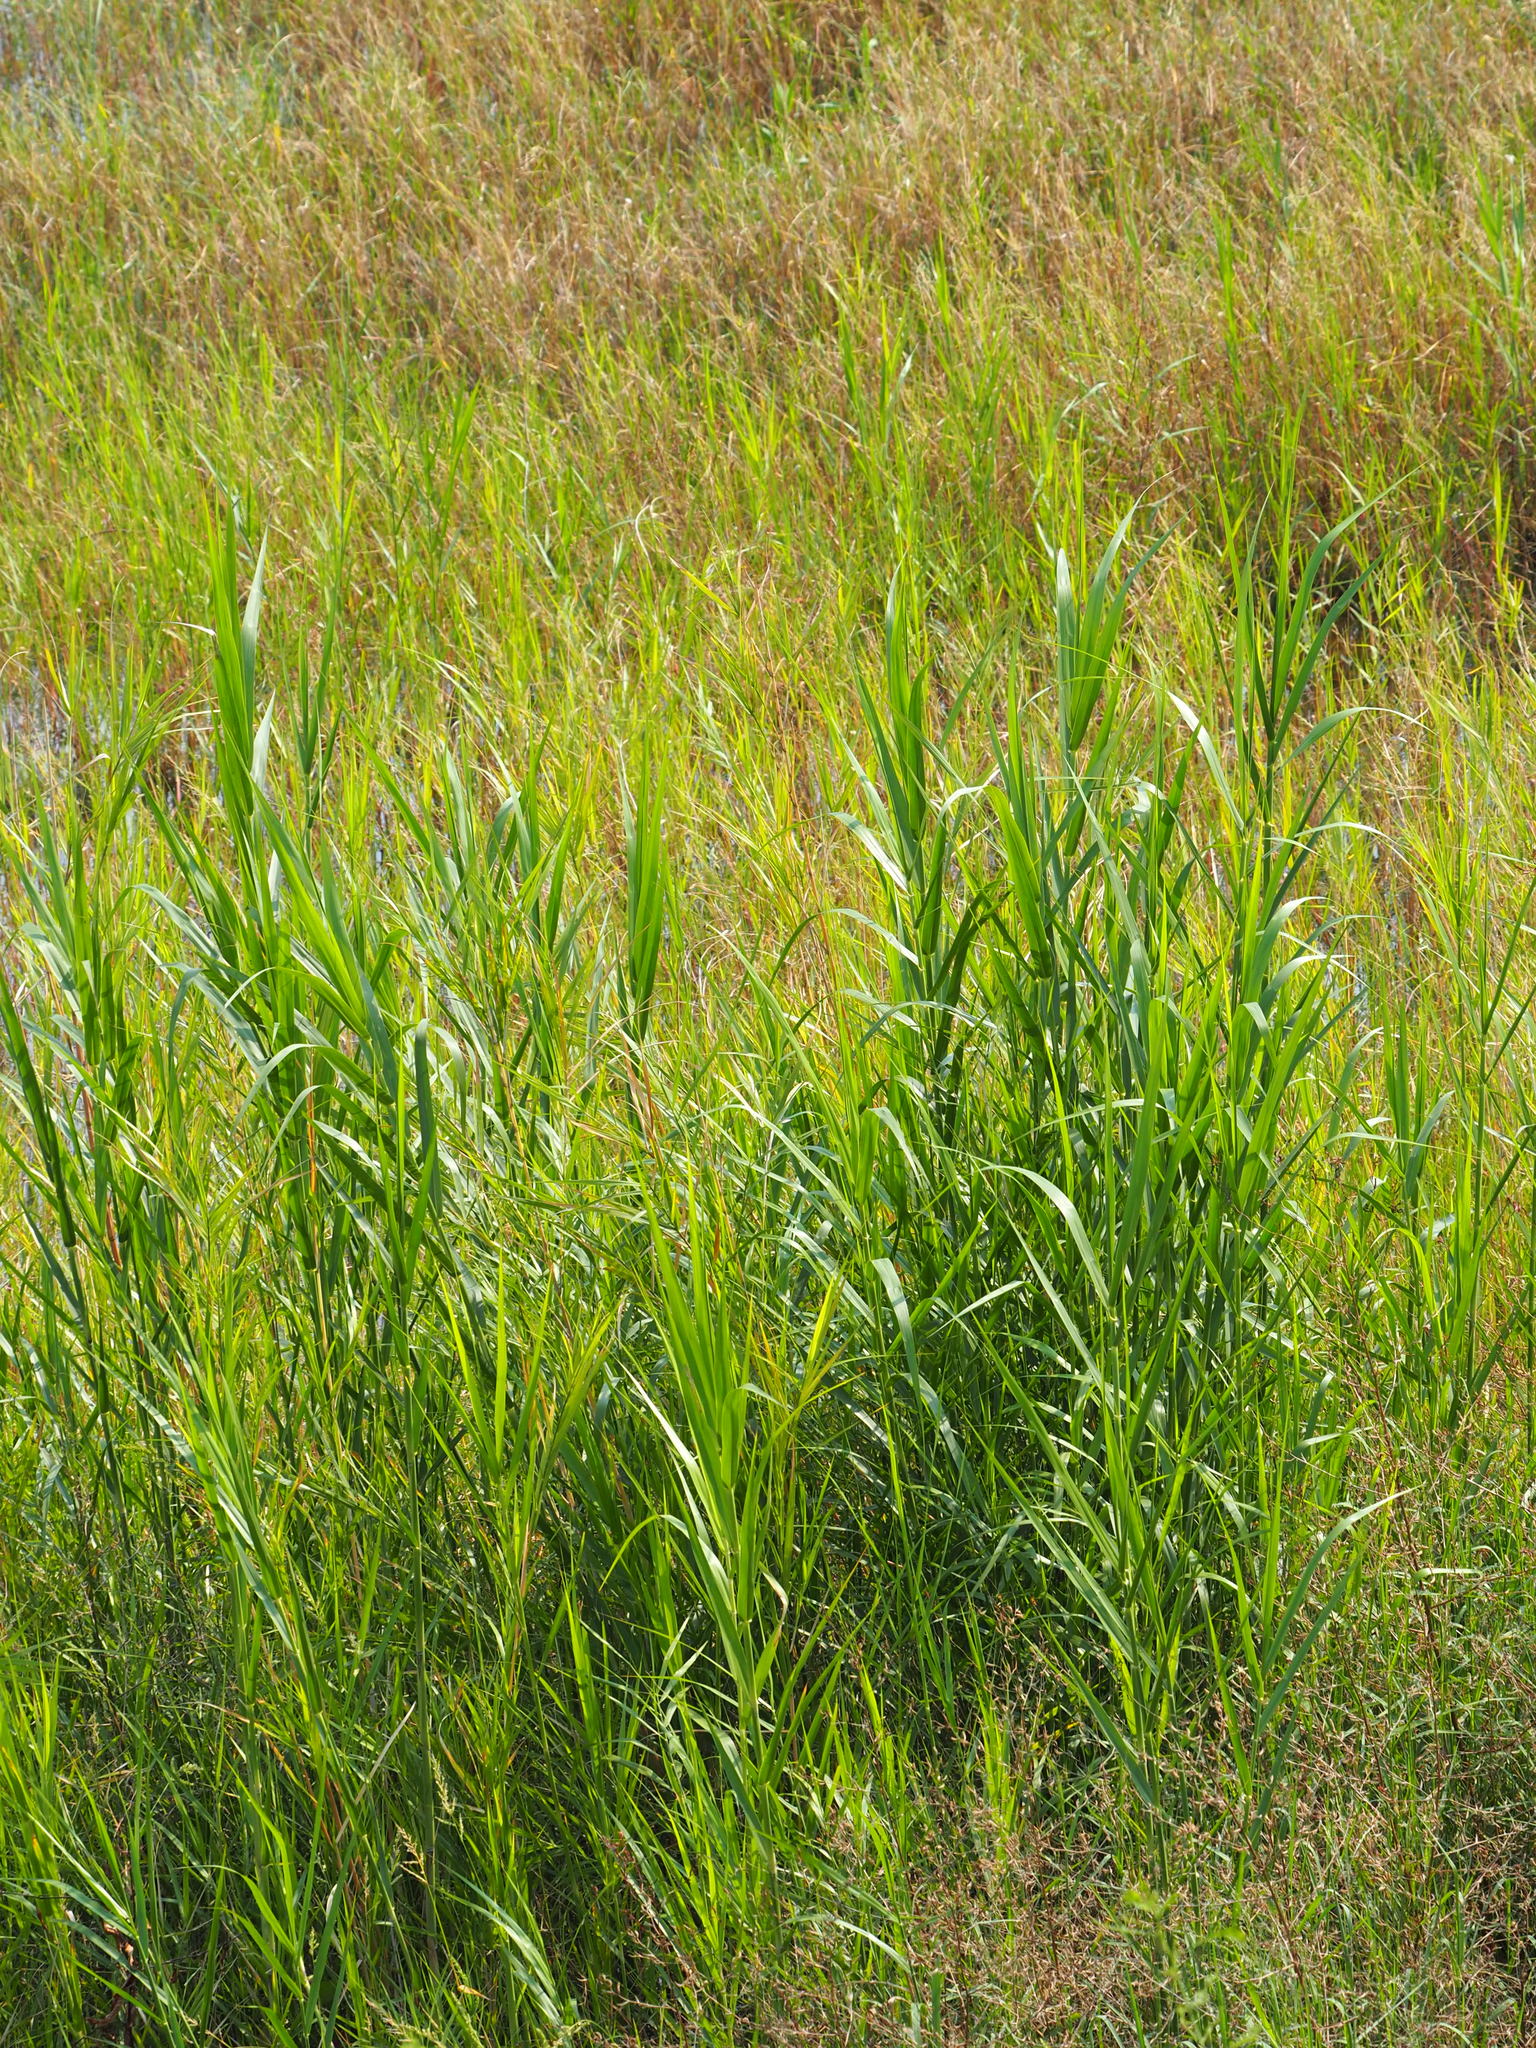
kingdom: Plantae
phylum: Tracheophyta
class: Liliopsida
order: Poales
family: Poaceae
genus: Phragmites
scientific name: Phragmites australis
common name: Common reed
